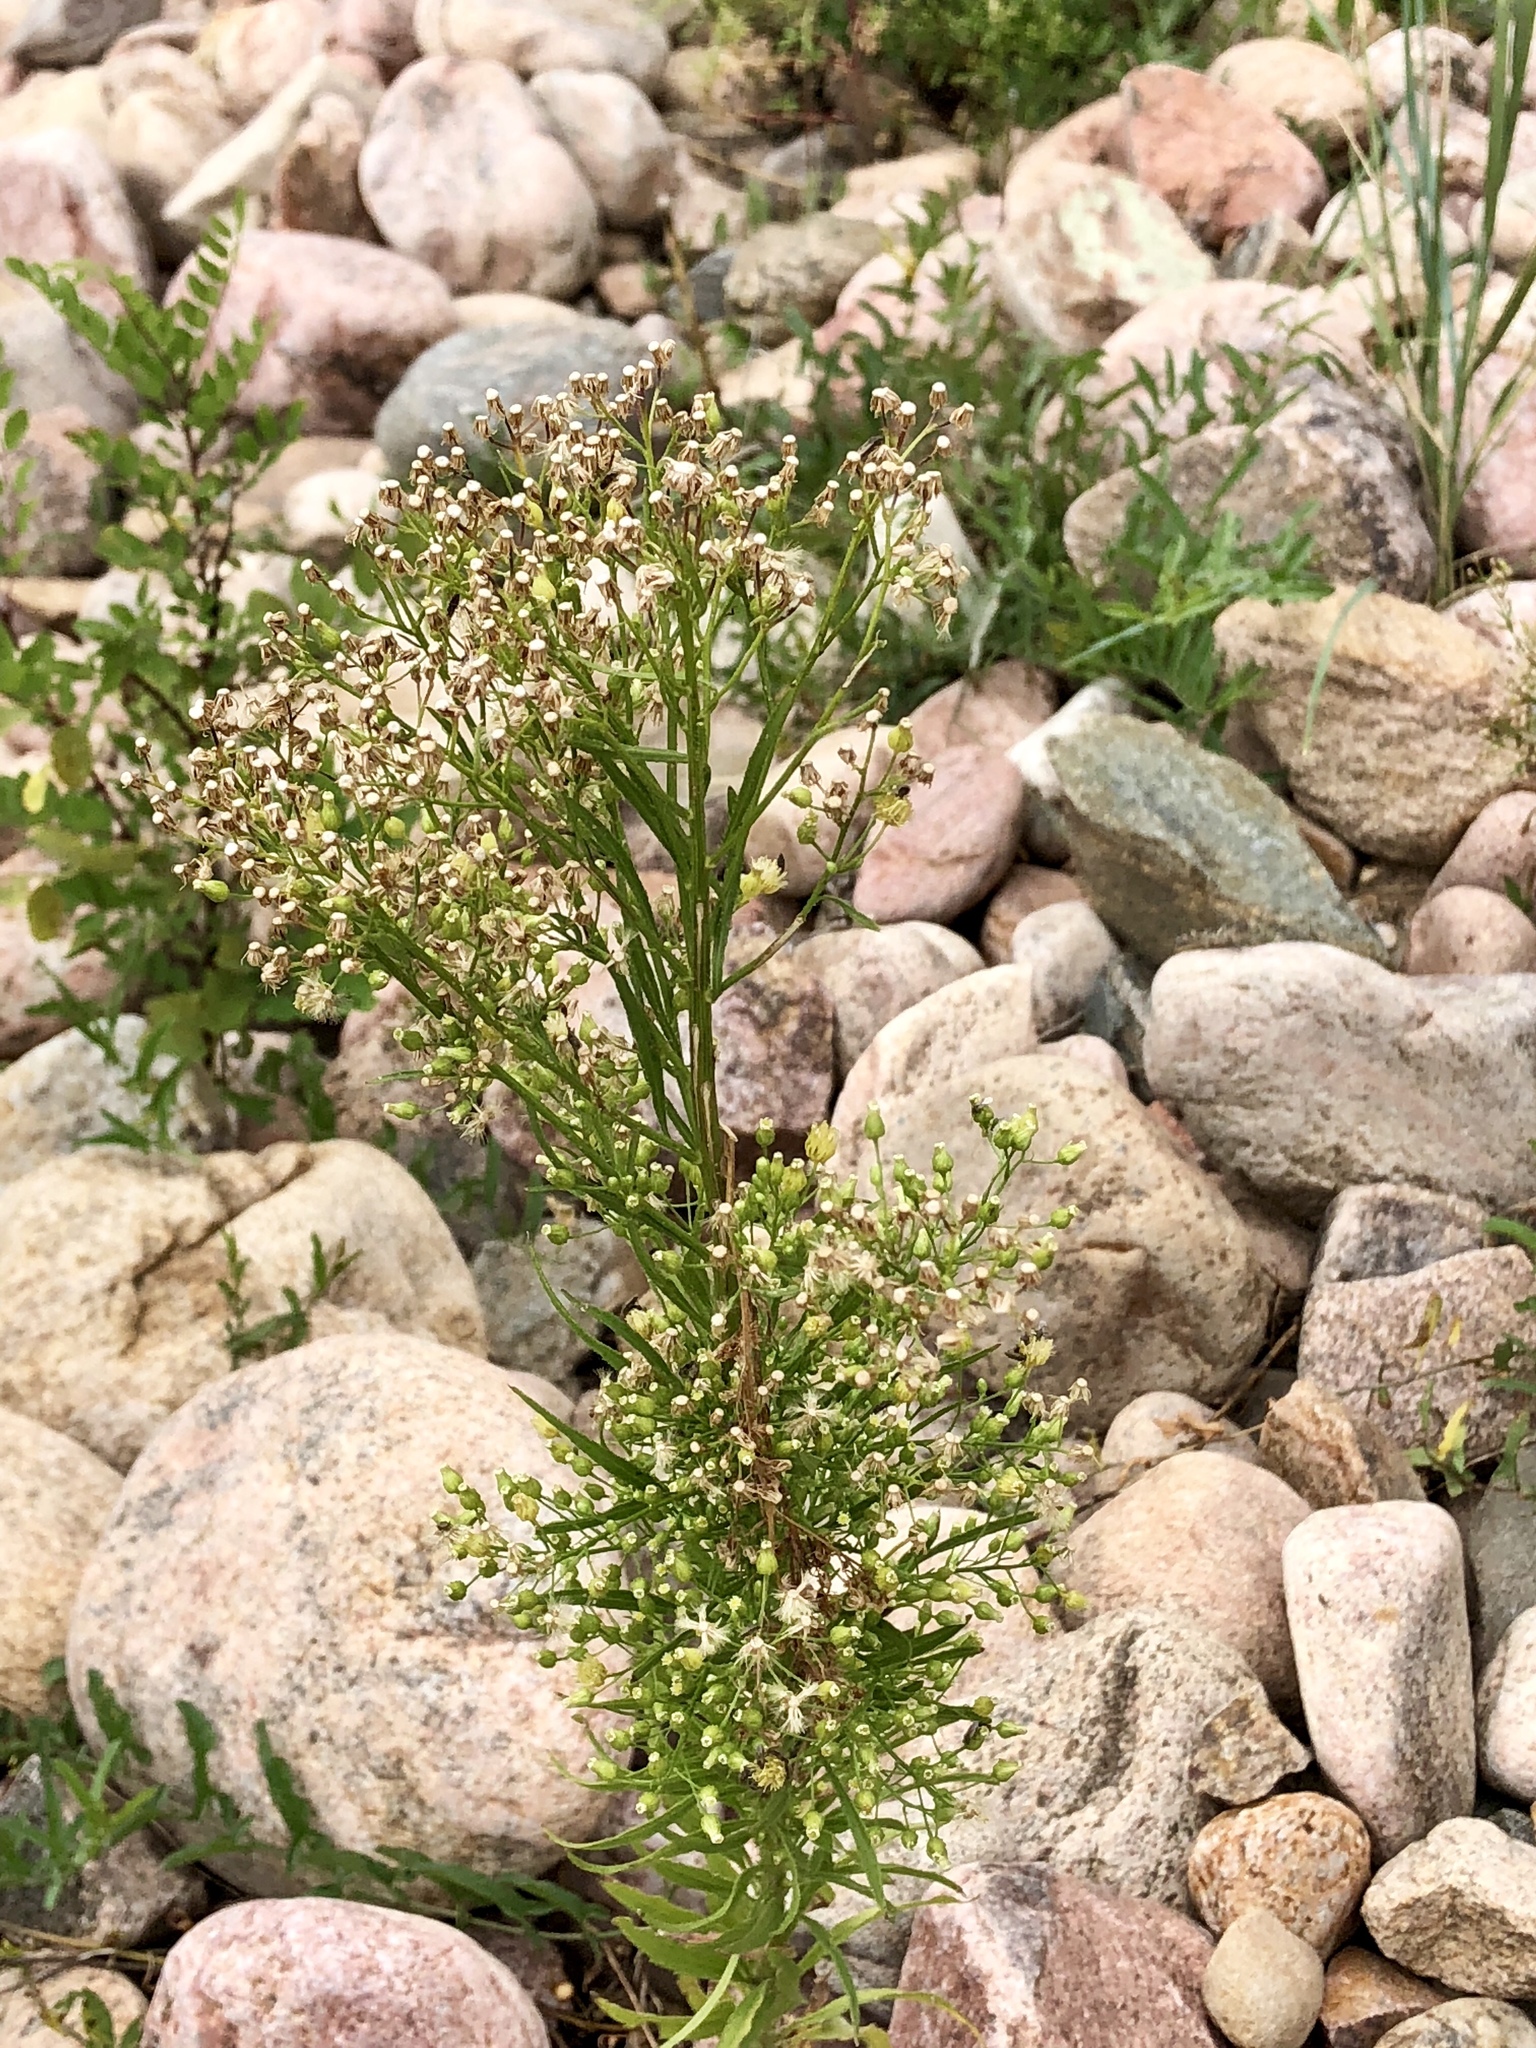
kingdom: Plantae
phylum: Tracheophyta
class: Magnoliopsida
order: Asterales
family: Asteraceae
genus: Erigeron
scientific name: Erigeron canadensis
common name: Canadian fleabane
